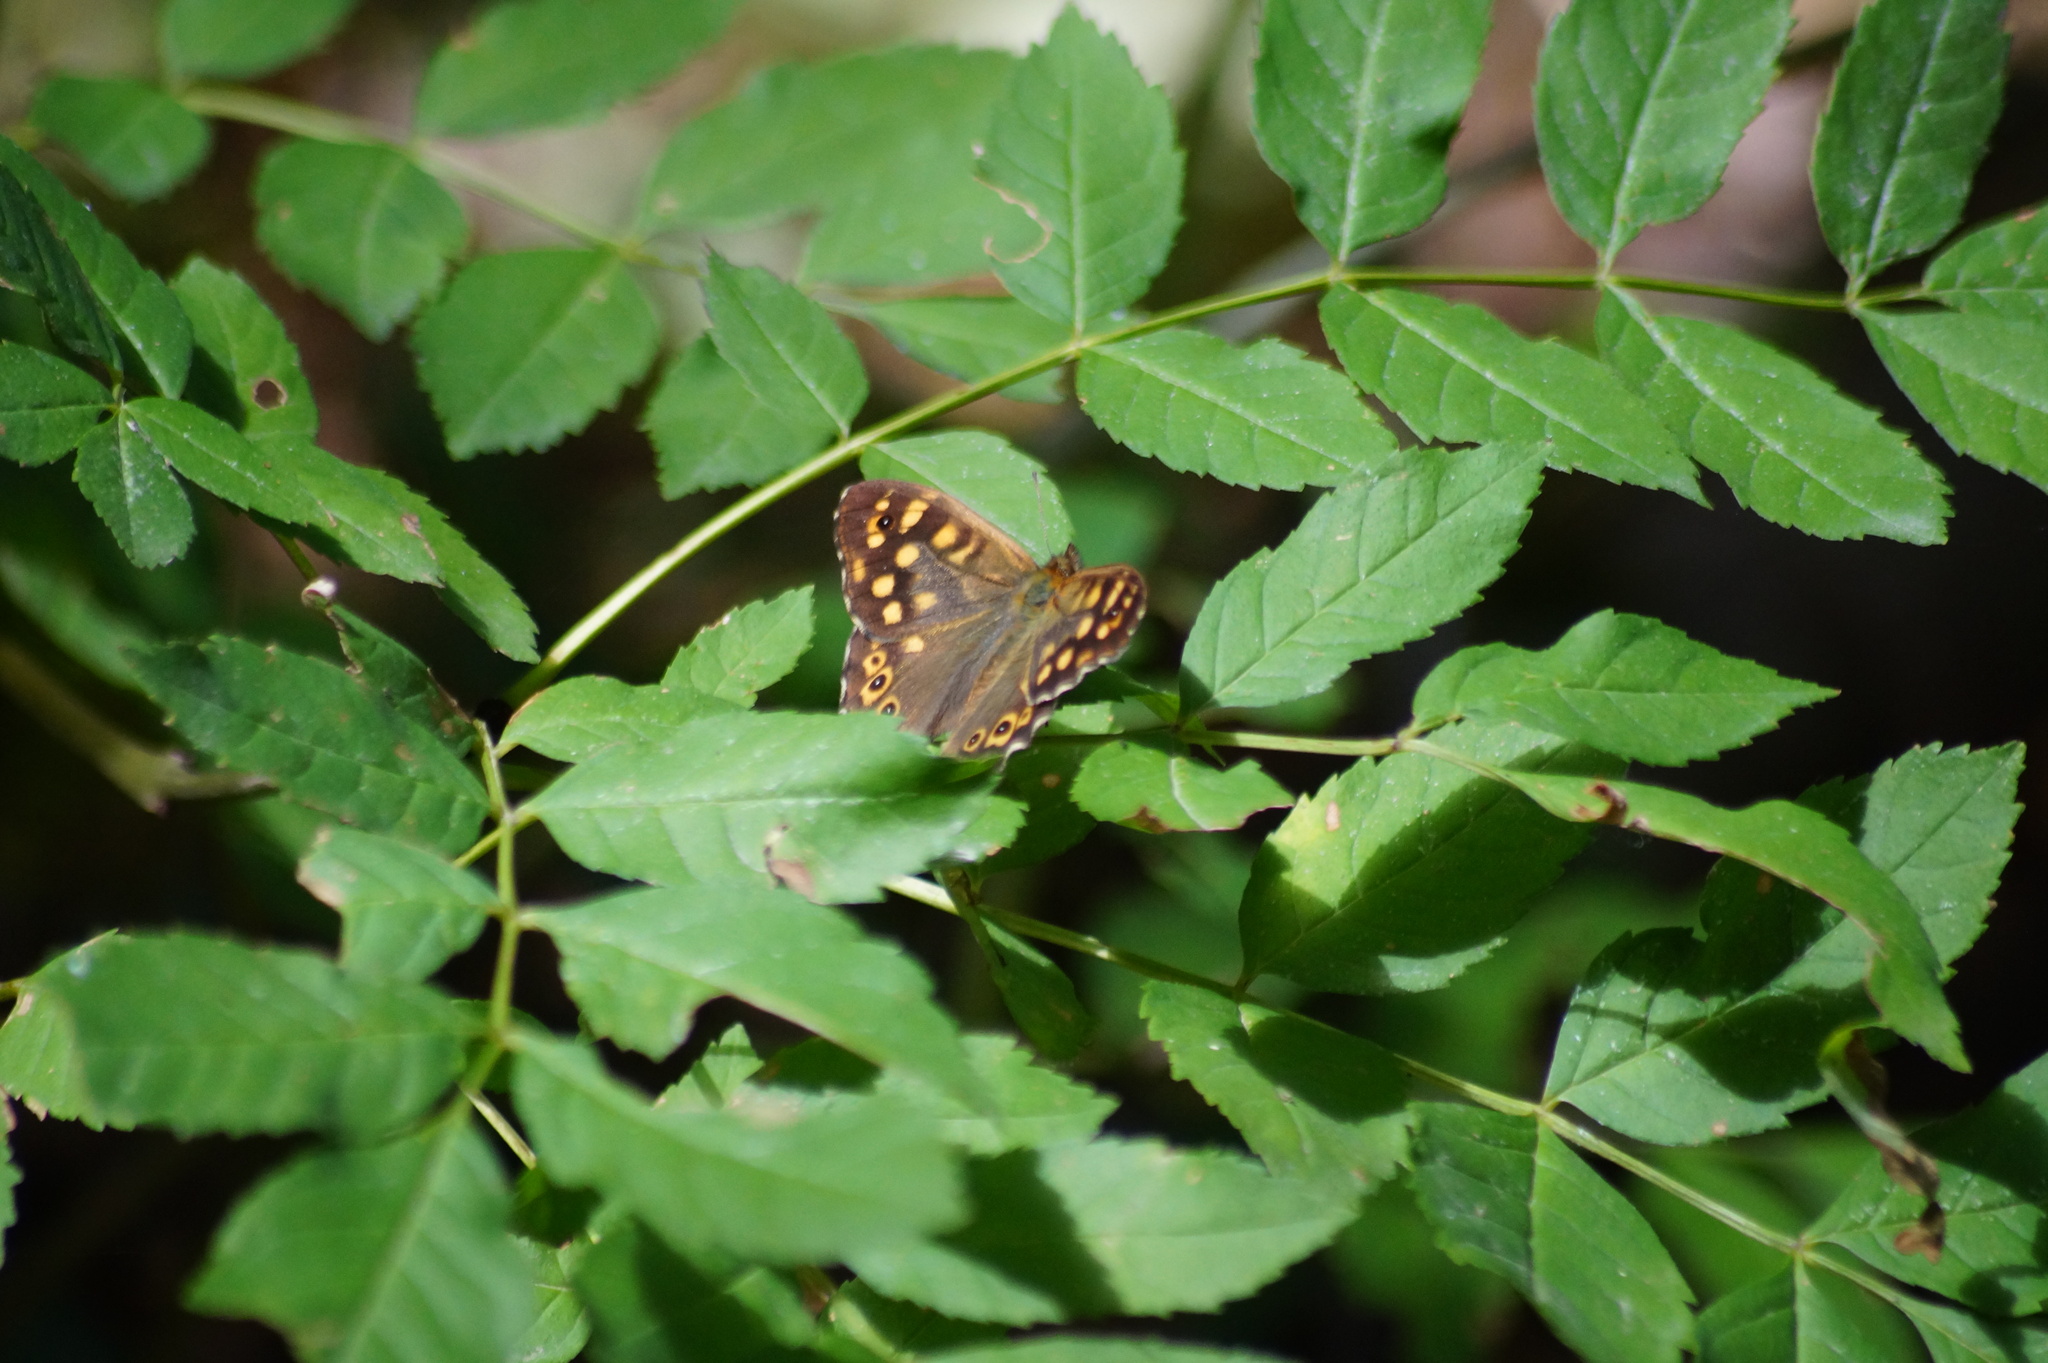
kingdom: Animalia
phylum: Arthropoda
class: Insecta
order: Lepidoptera
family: Nymphalidae
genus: Pararge
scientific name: Pararge aegeria
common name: Speckled wood
